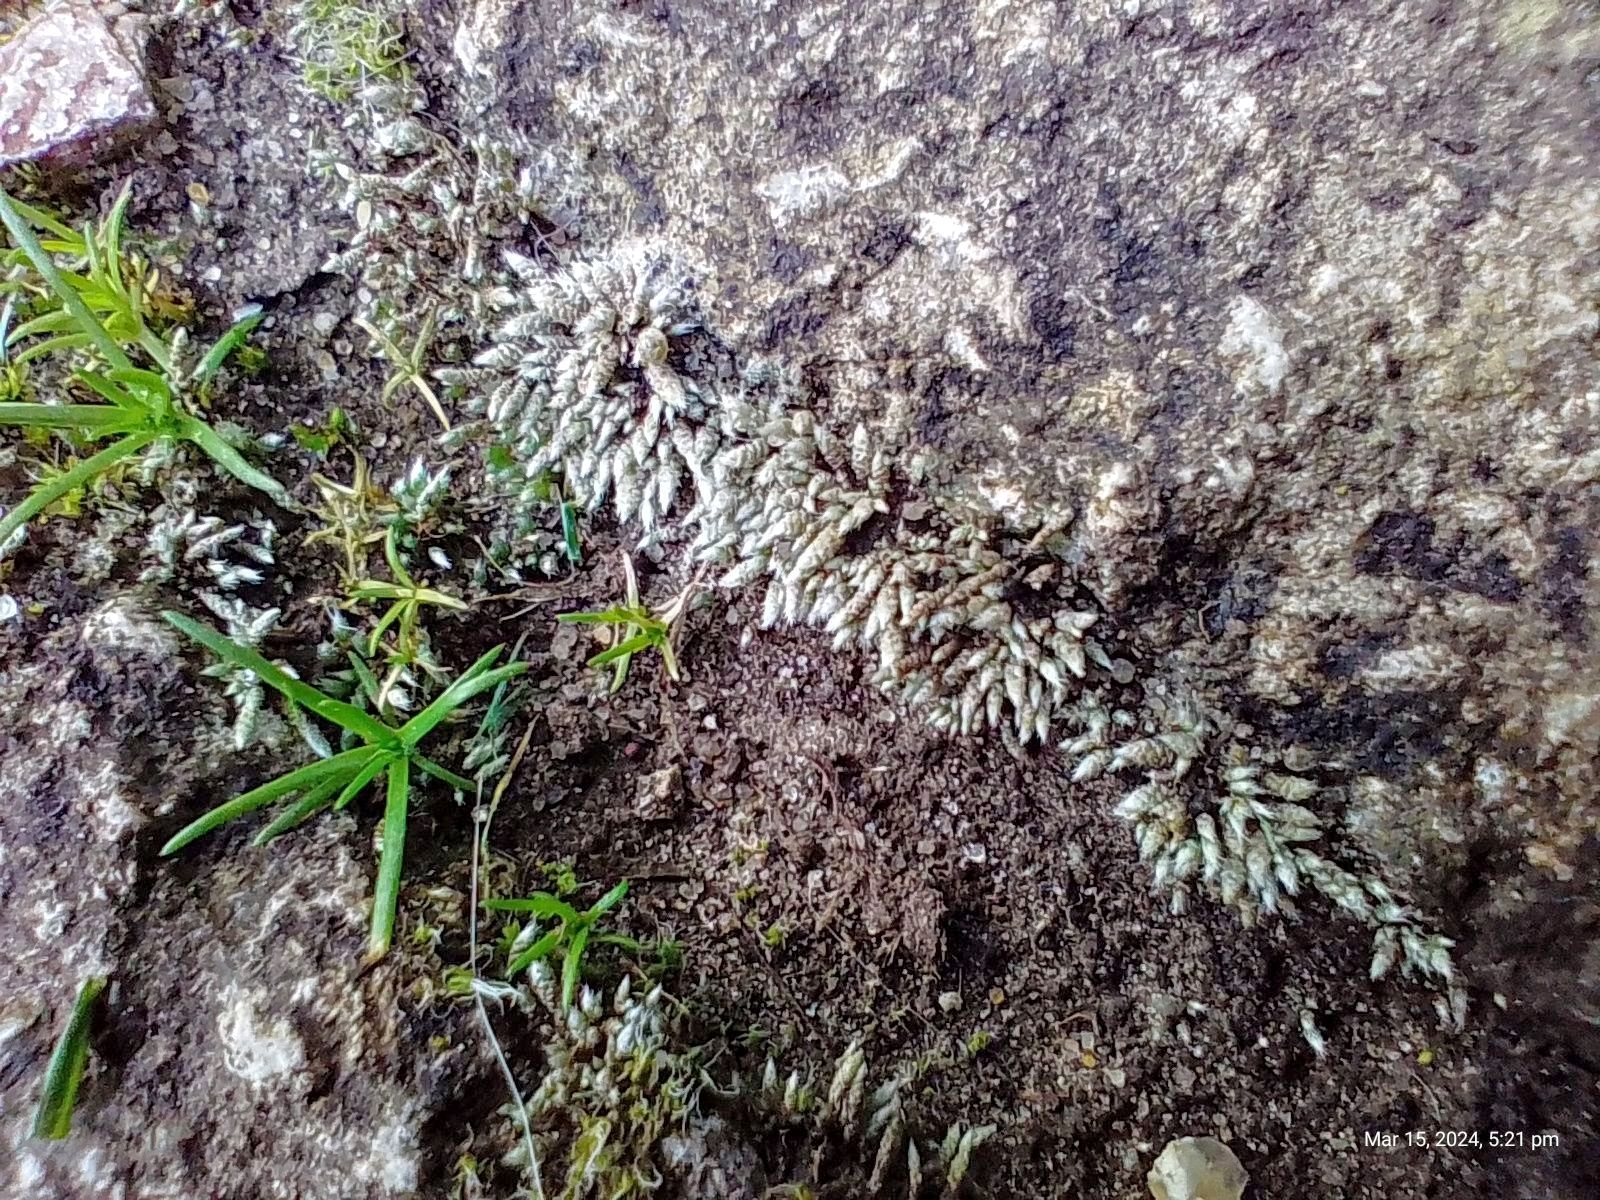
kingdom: Plantae
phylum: Bryophyta
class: Bryopsida
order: Bryales
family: Bryaceae
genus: Bryum
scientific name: Bryum argenteum
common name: Silver-moss
